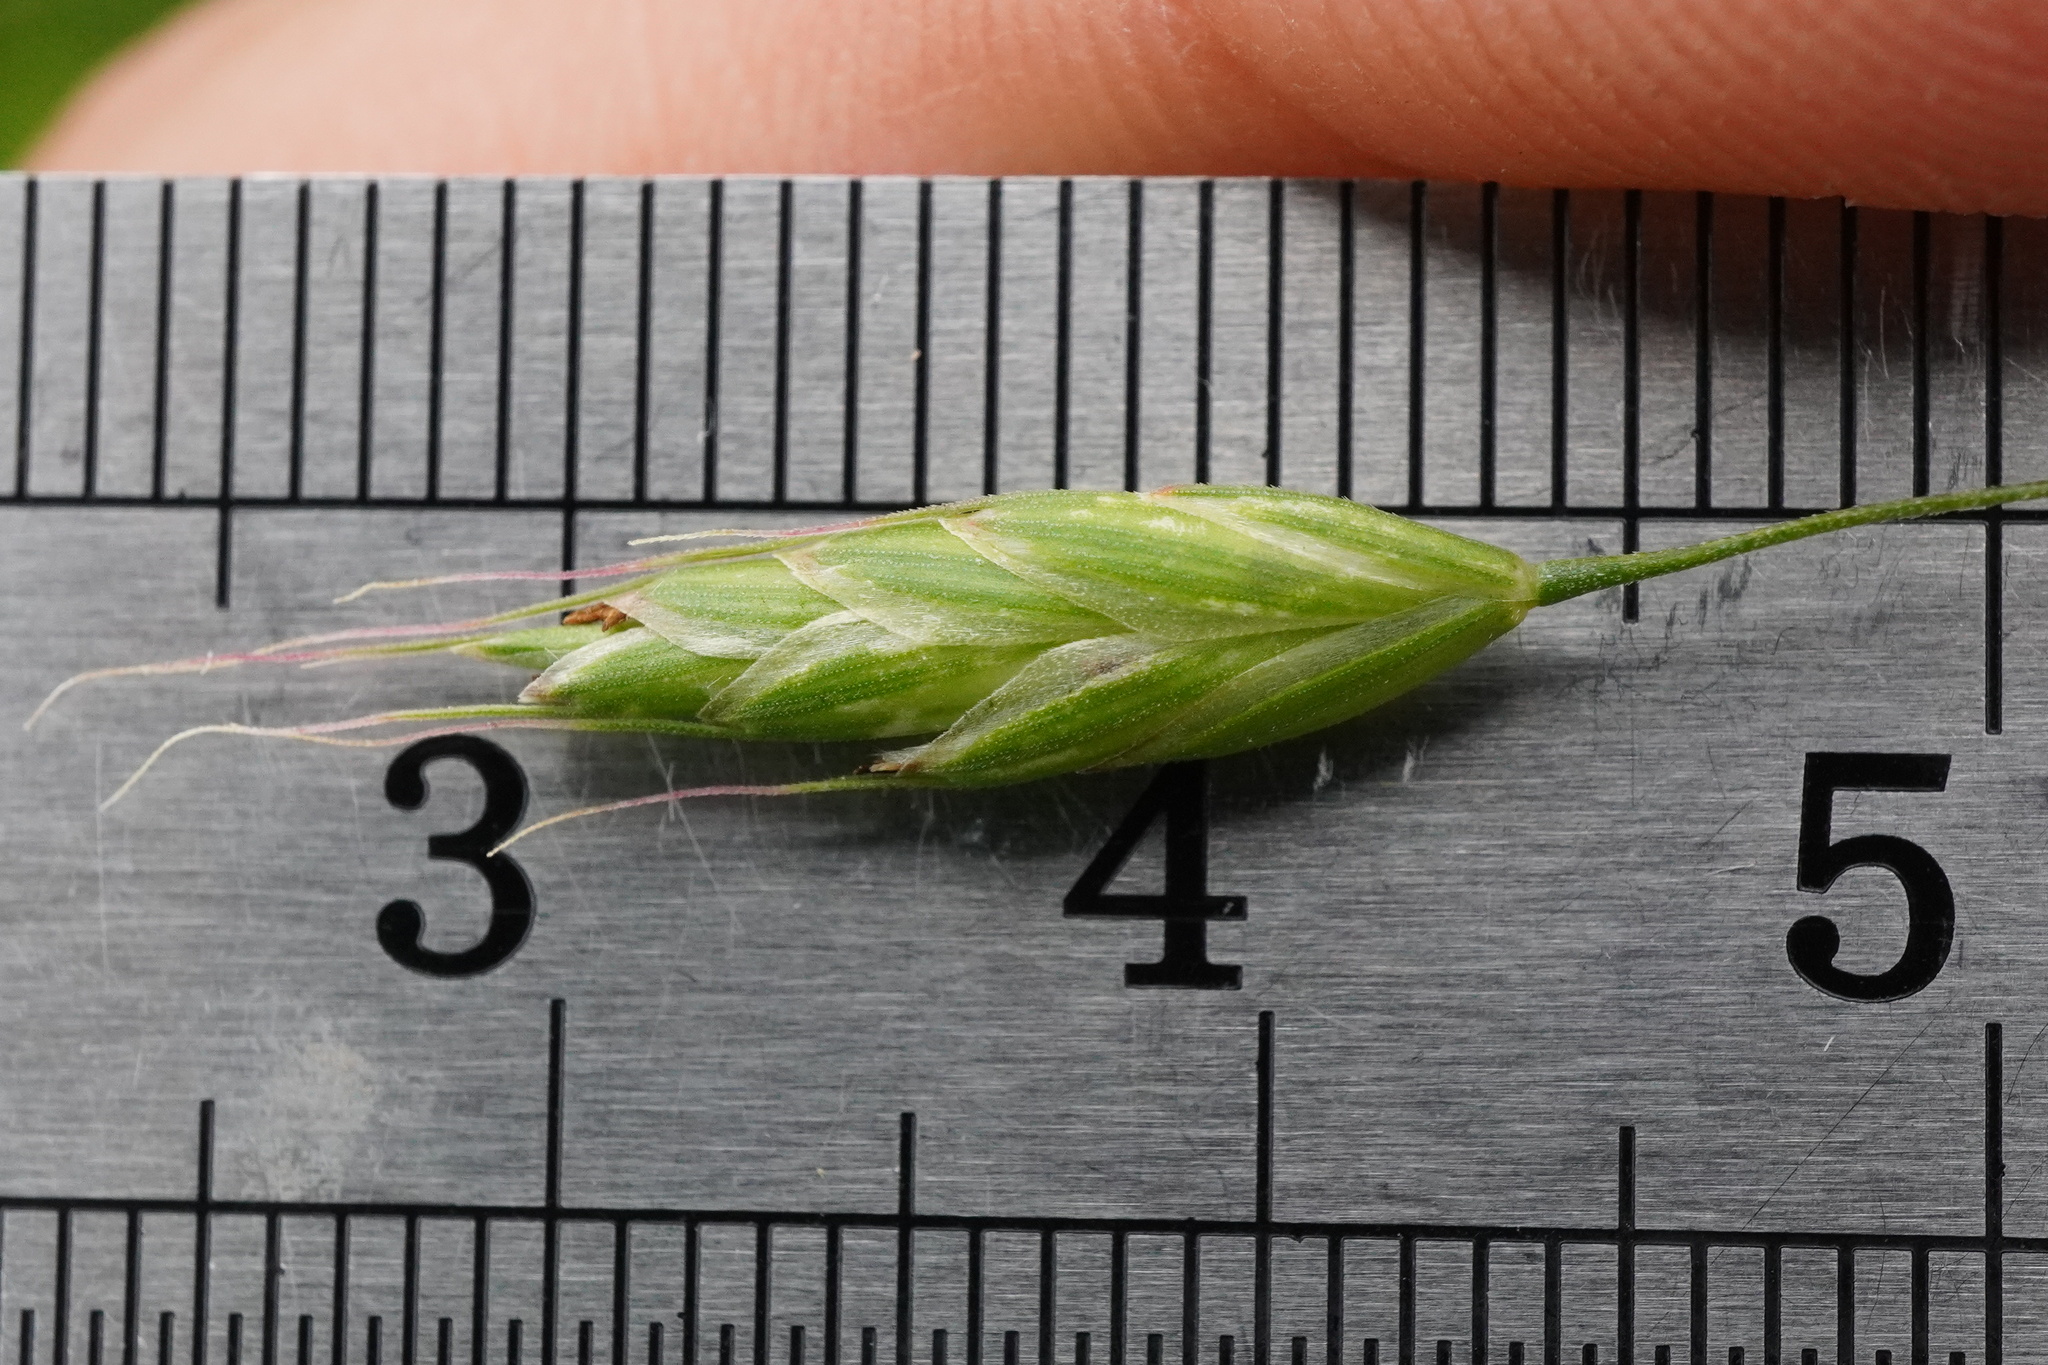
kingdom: Plantae
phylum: Tracheophyta
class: Liliopsida
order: Poales
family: Poaceae
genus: Bromus
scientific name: Bromus commutatus
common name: Meadow brome
